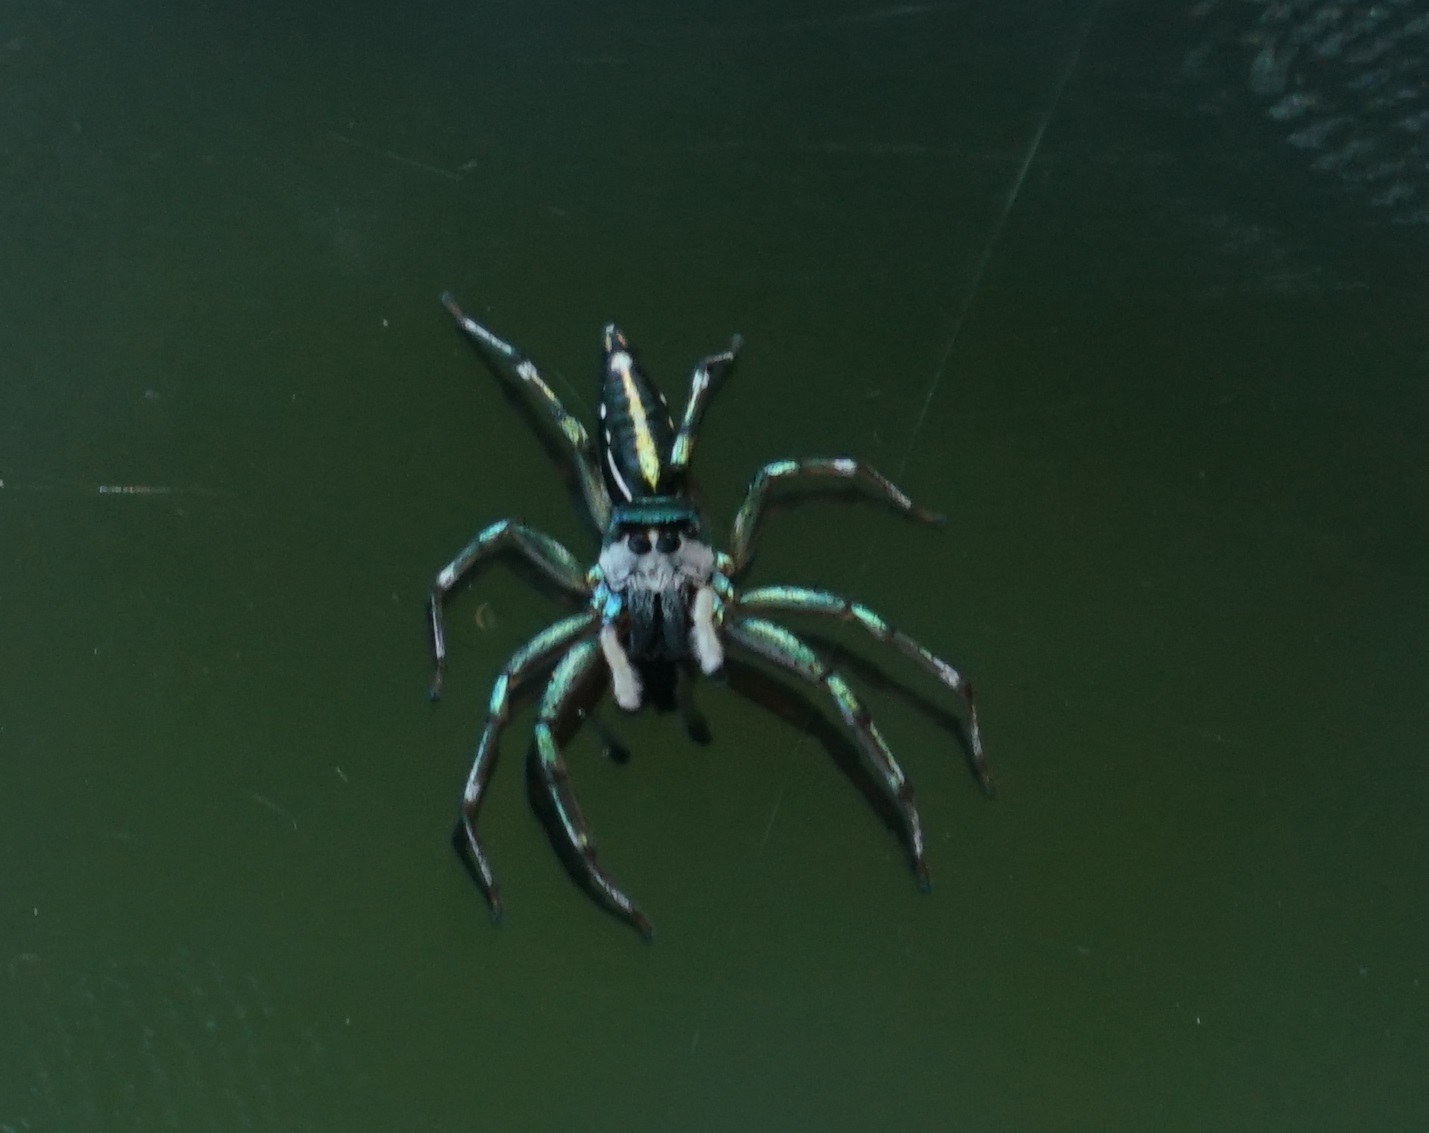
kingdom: Animalia
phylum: Arthropoda
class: Arachnida
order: Araneae
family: Salticidae
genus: Cosmophasis
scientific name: Cosmophasis thalassina
